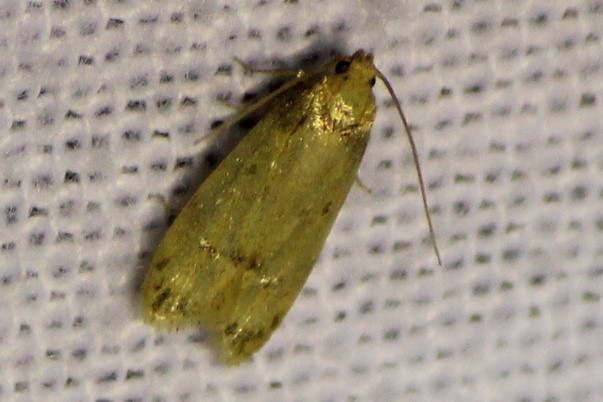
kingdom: Animalia
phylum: Arthropoda
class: Insecta
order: Lepidoptera
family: Autostichidae
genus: Gerdana
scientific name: Gerdana caritella
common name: Gerdana moth
